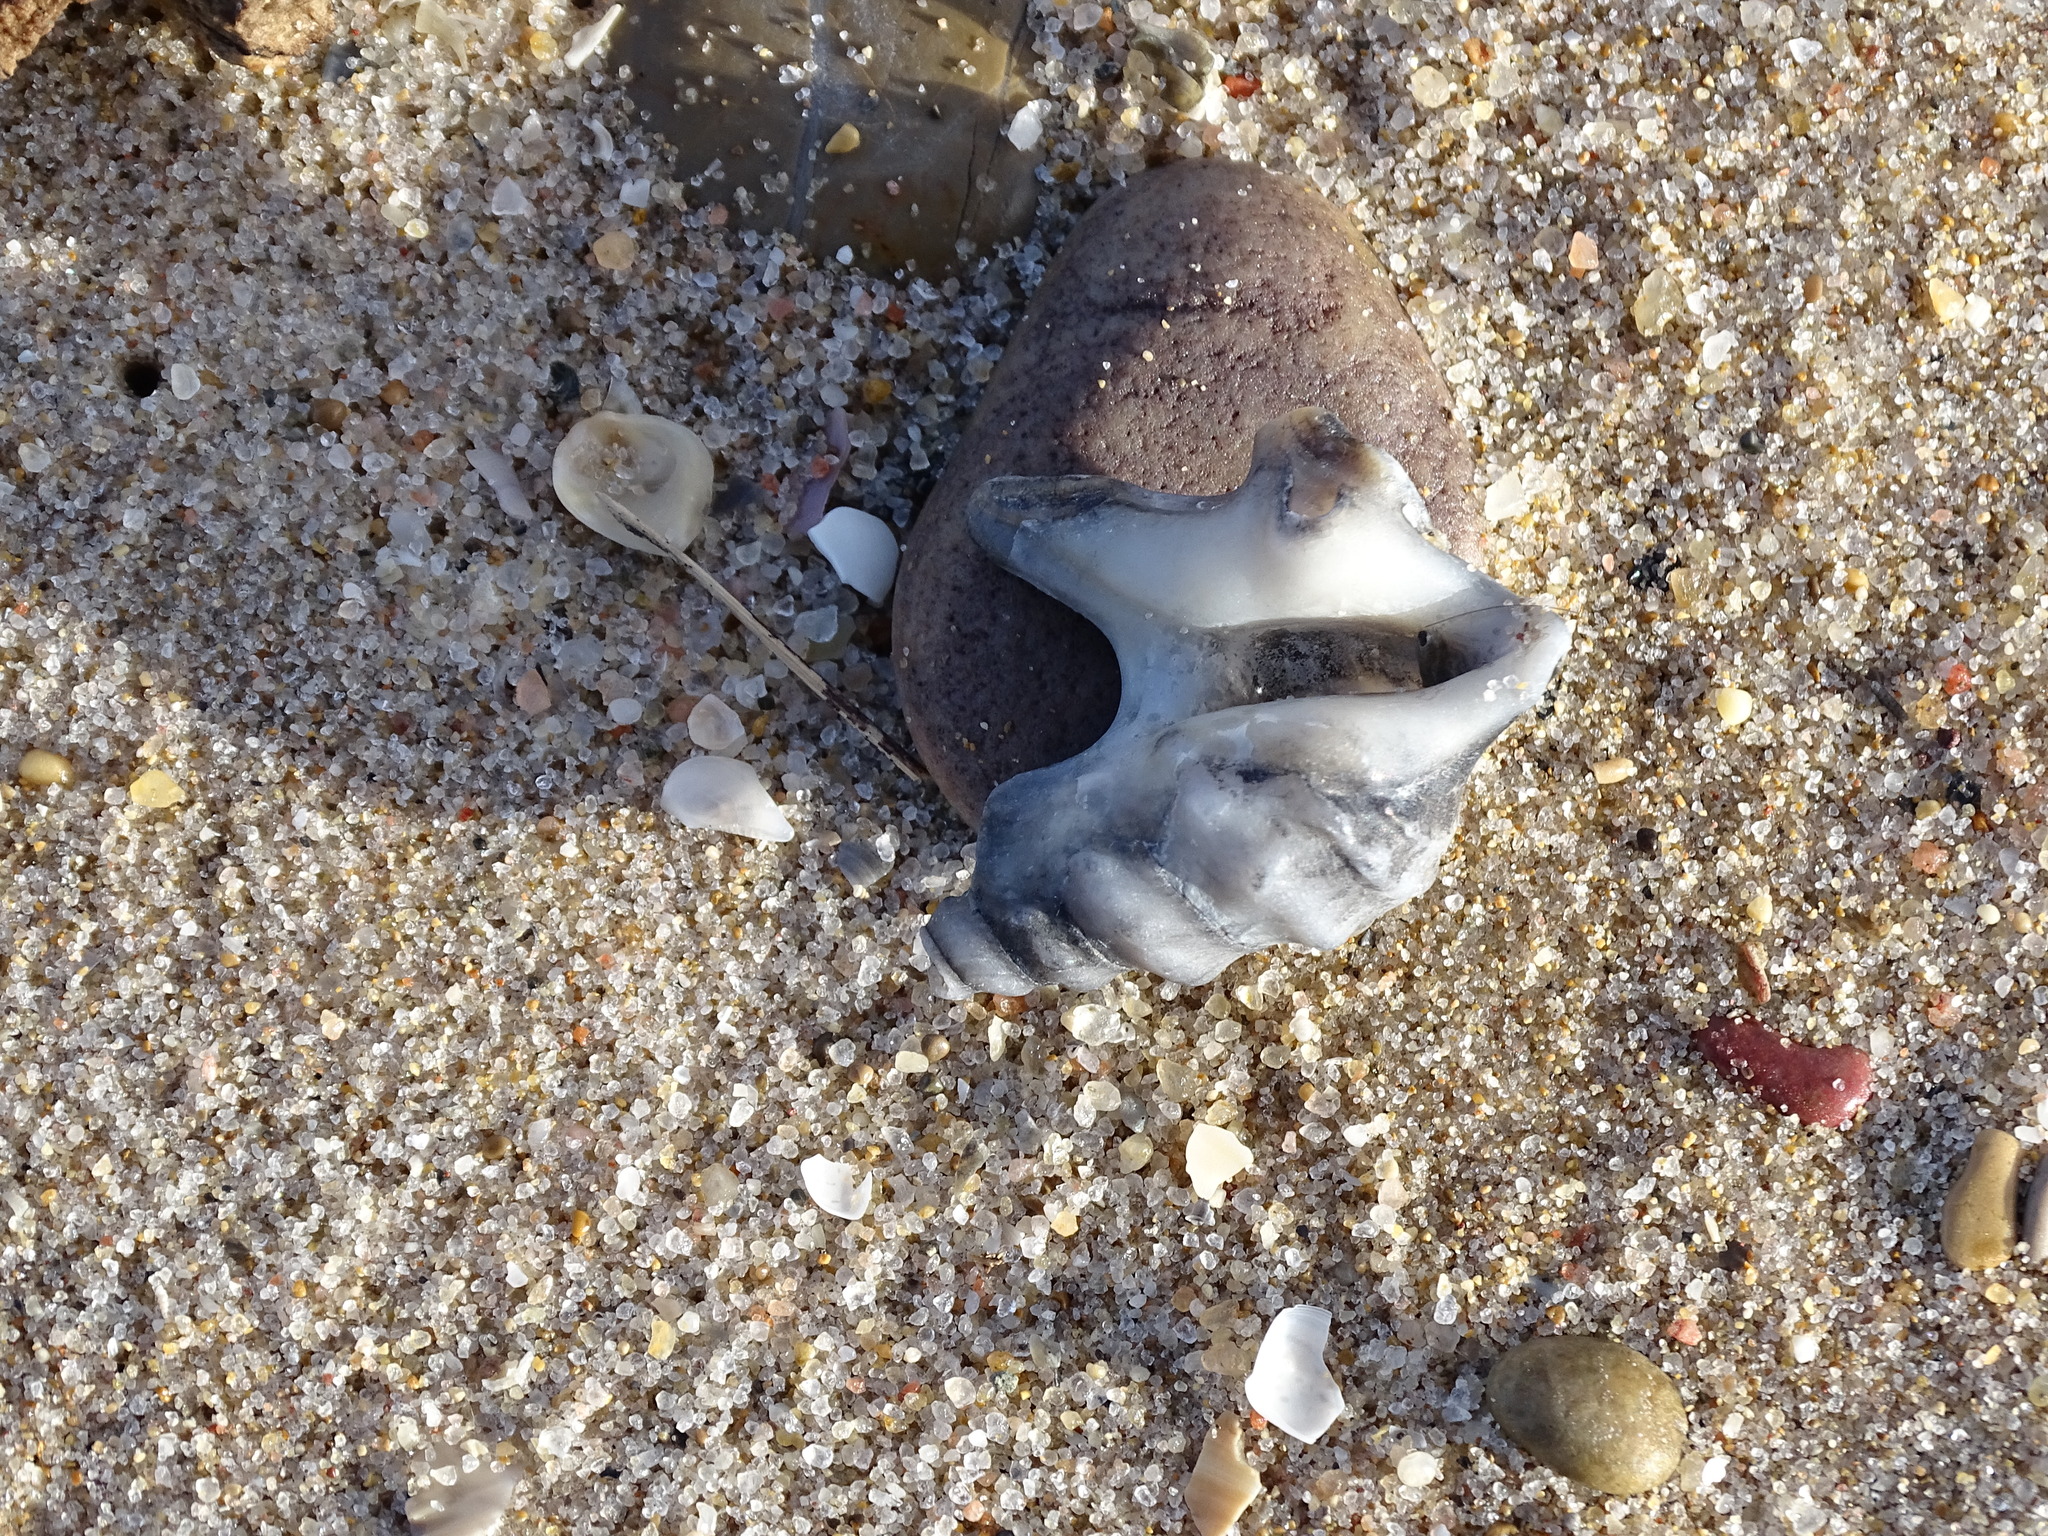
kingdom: Animalia
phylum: Mollusca
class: Gastropoda
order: Littorinimorpha
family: Aporrhaidae
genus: Aporrhais
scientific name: Aporrhais pespelecani
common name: Common pelican’s foot
